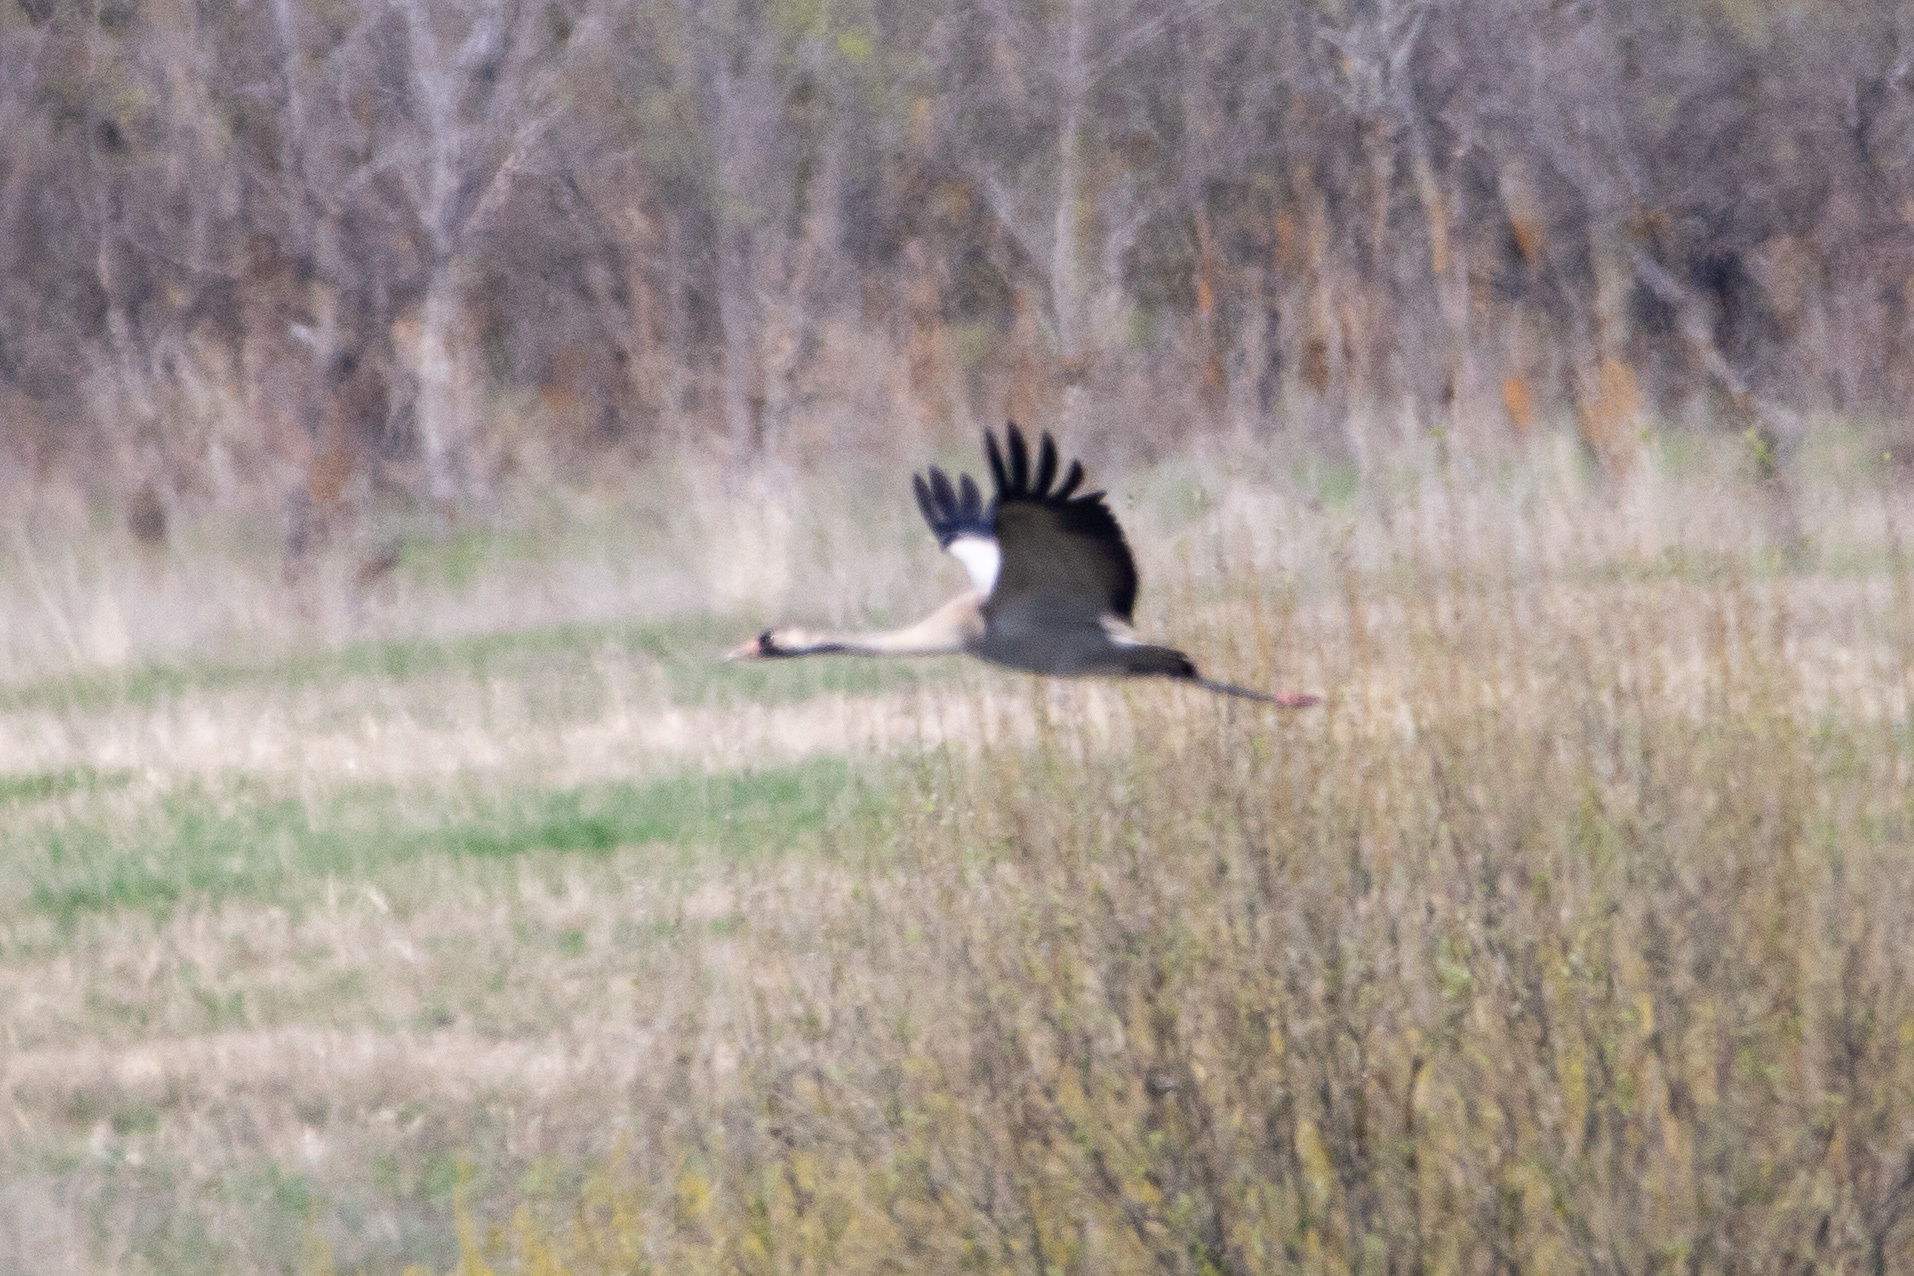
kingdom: Animalia
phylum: Chordata
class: Aves
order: Gruiformes
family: Gruidae
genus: Grus
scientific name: Grus grus
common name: Common crane
